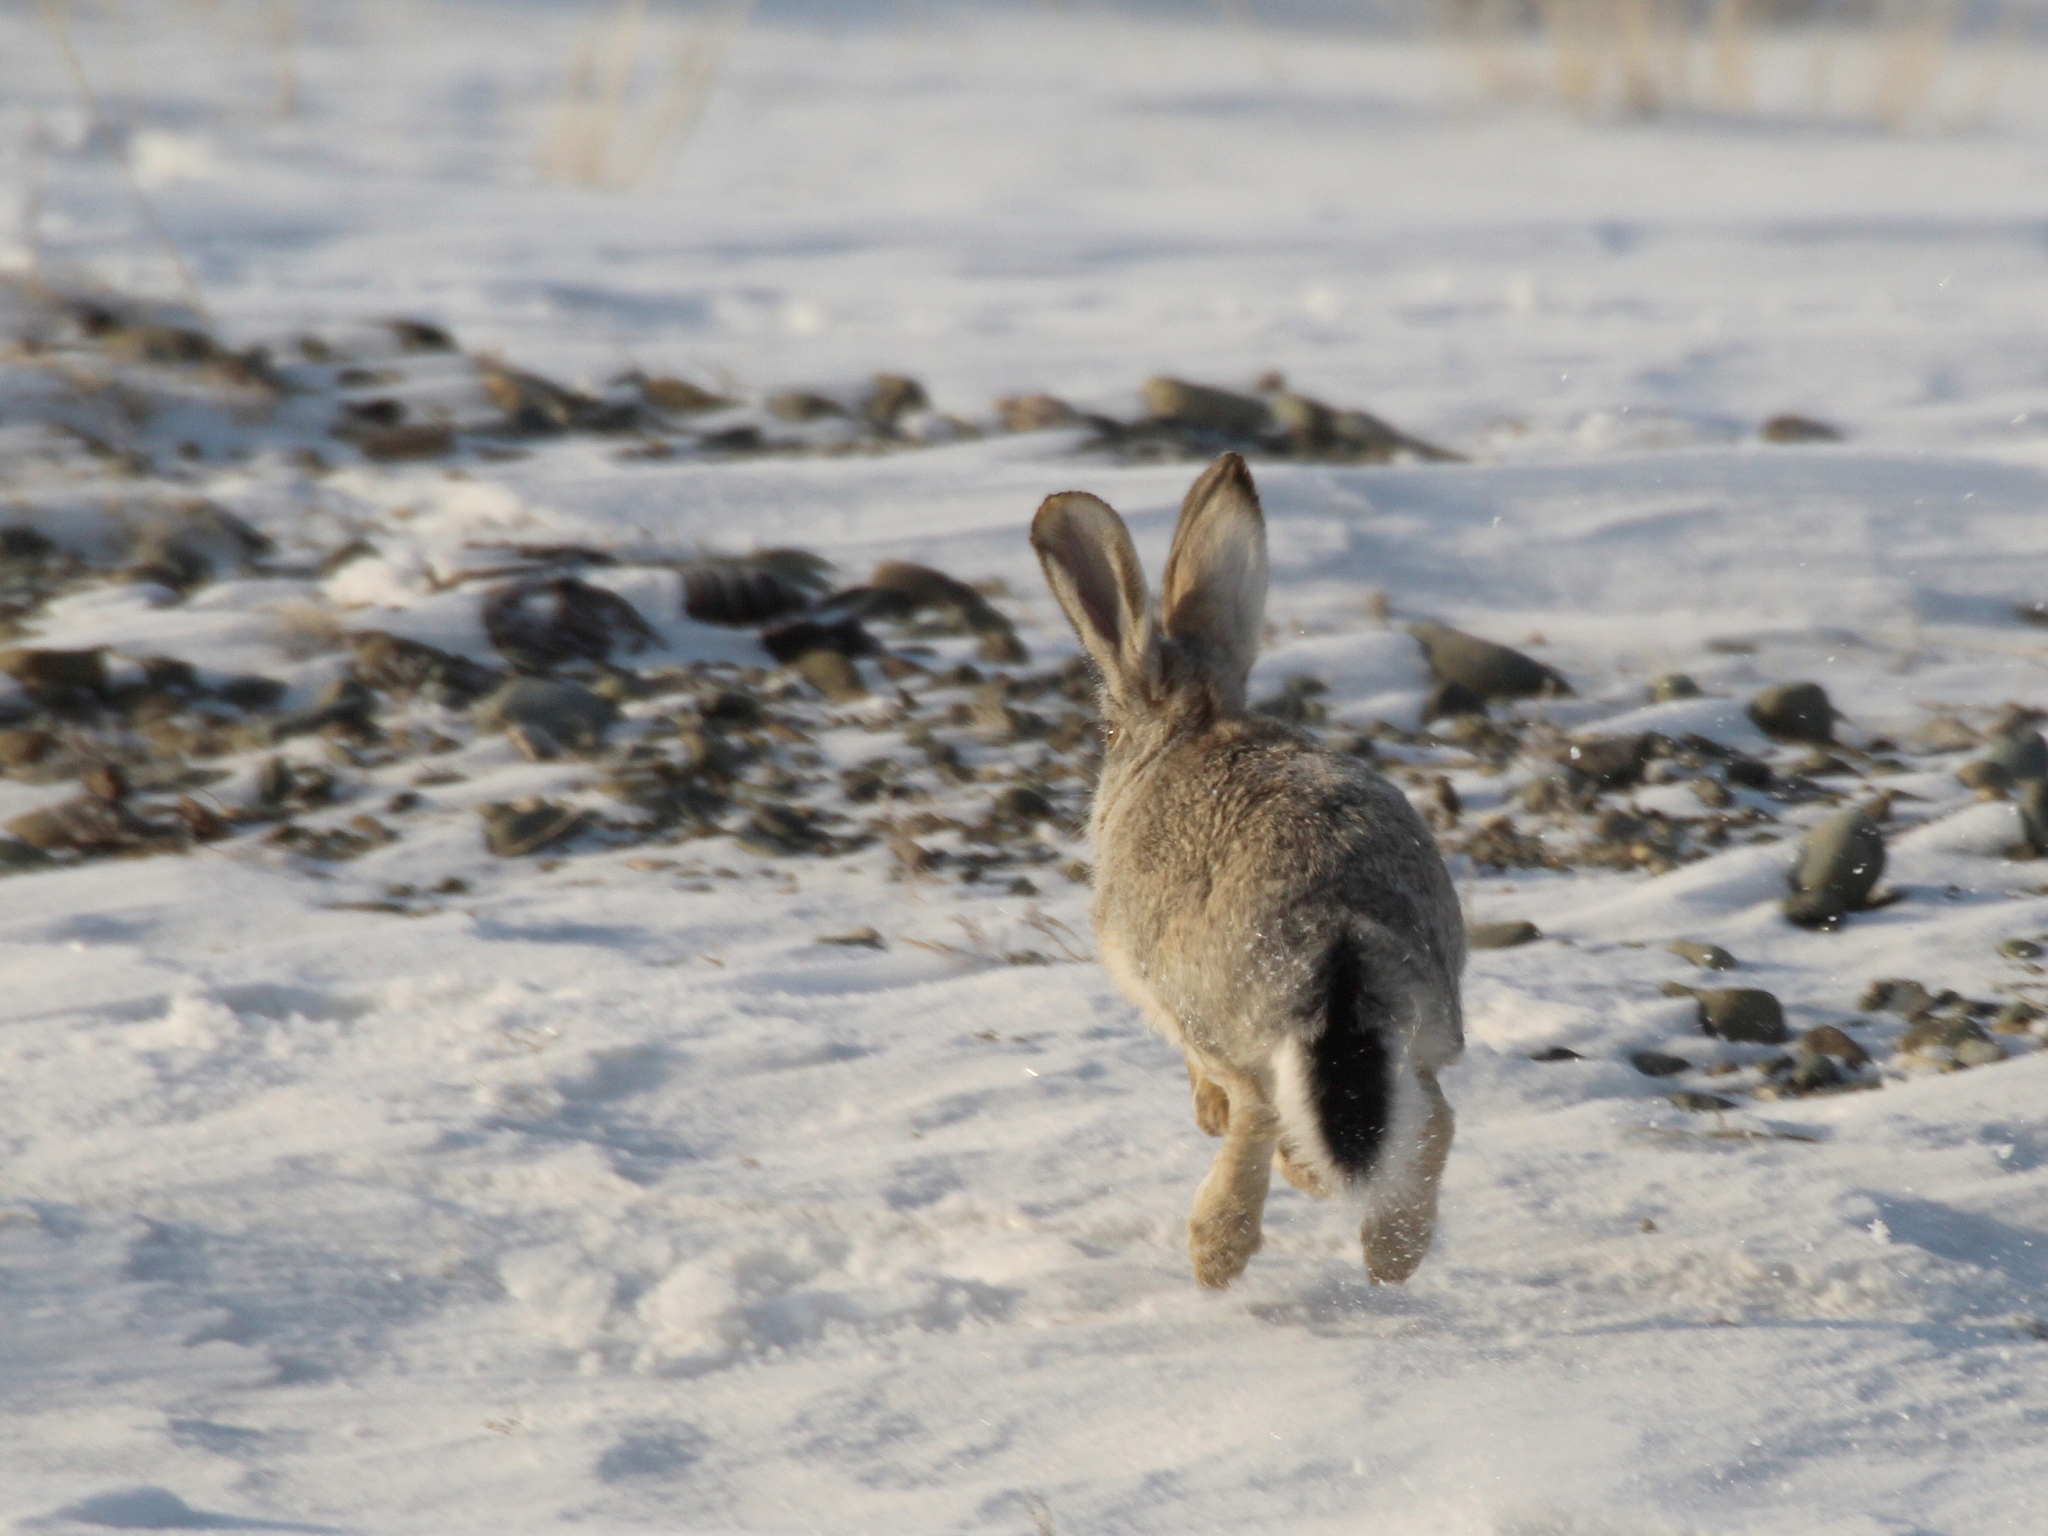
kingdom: Animalia
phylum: Chordata
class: Mammalia
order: Lagomorpha
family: Leporidae
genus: Lepus
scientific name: Lepus tolai
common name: Tolai hare
